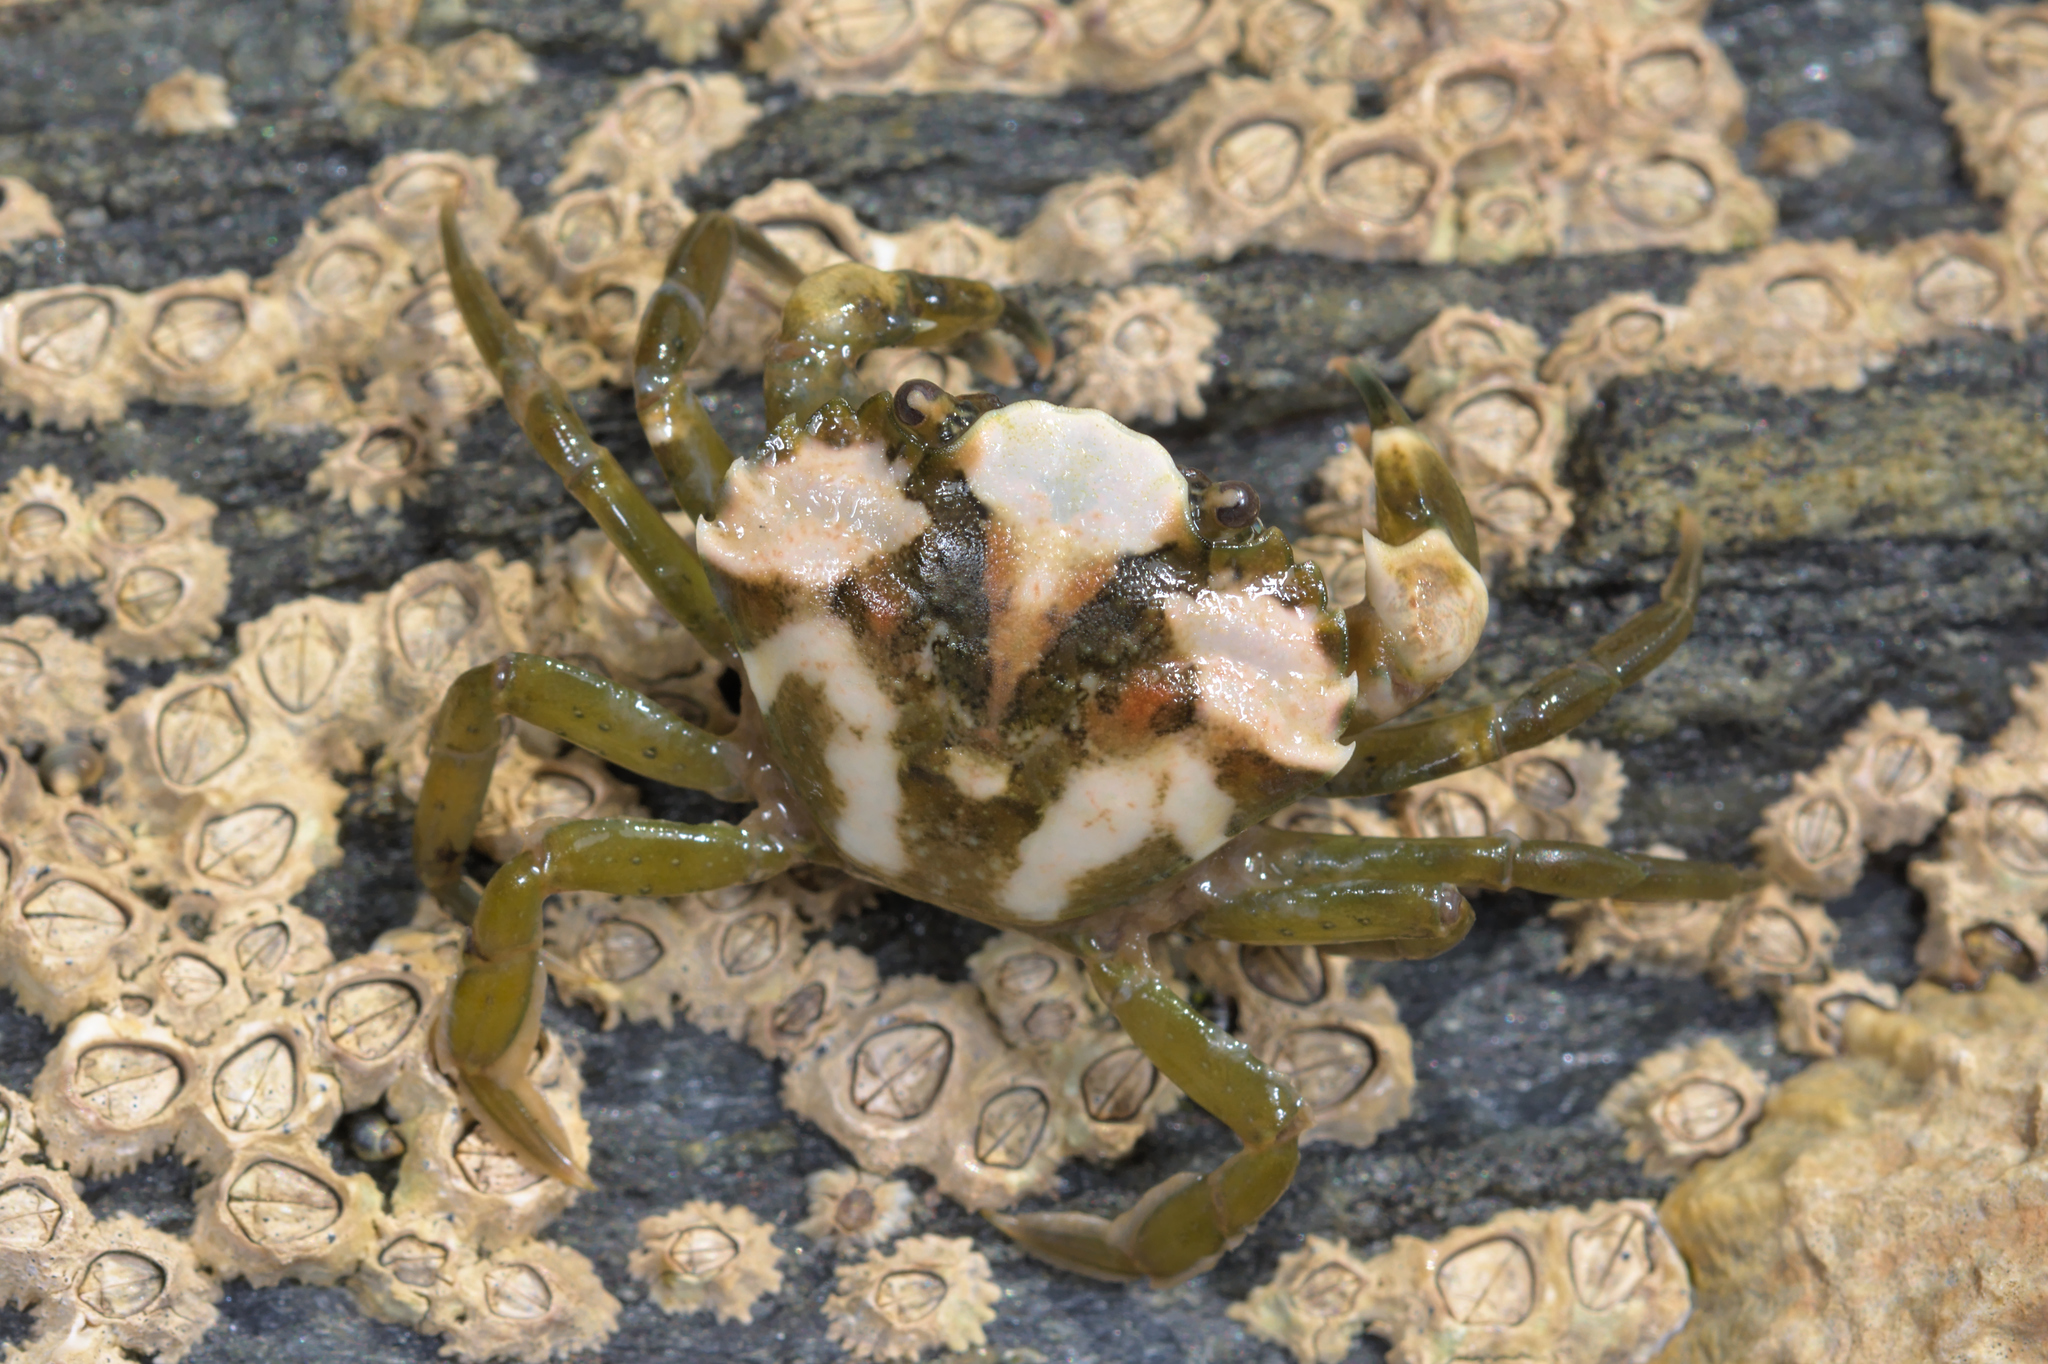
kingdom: Animalia
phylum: Arthropoda
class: Malacostraca
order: Decapoda
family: Carcinidae
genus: Carcinus
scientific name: Carcinus maenas
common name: European green crab
